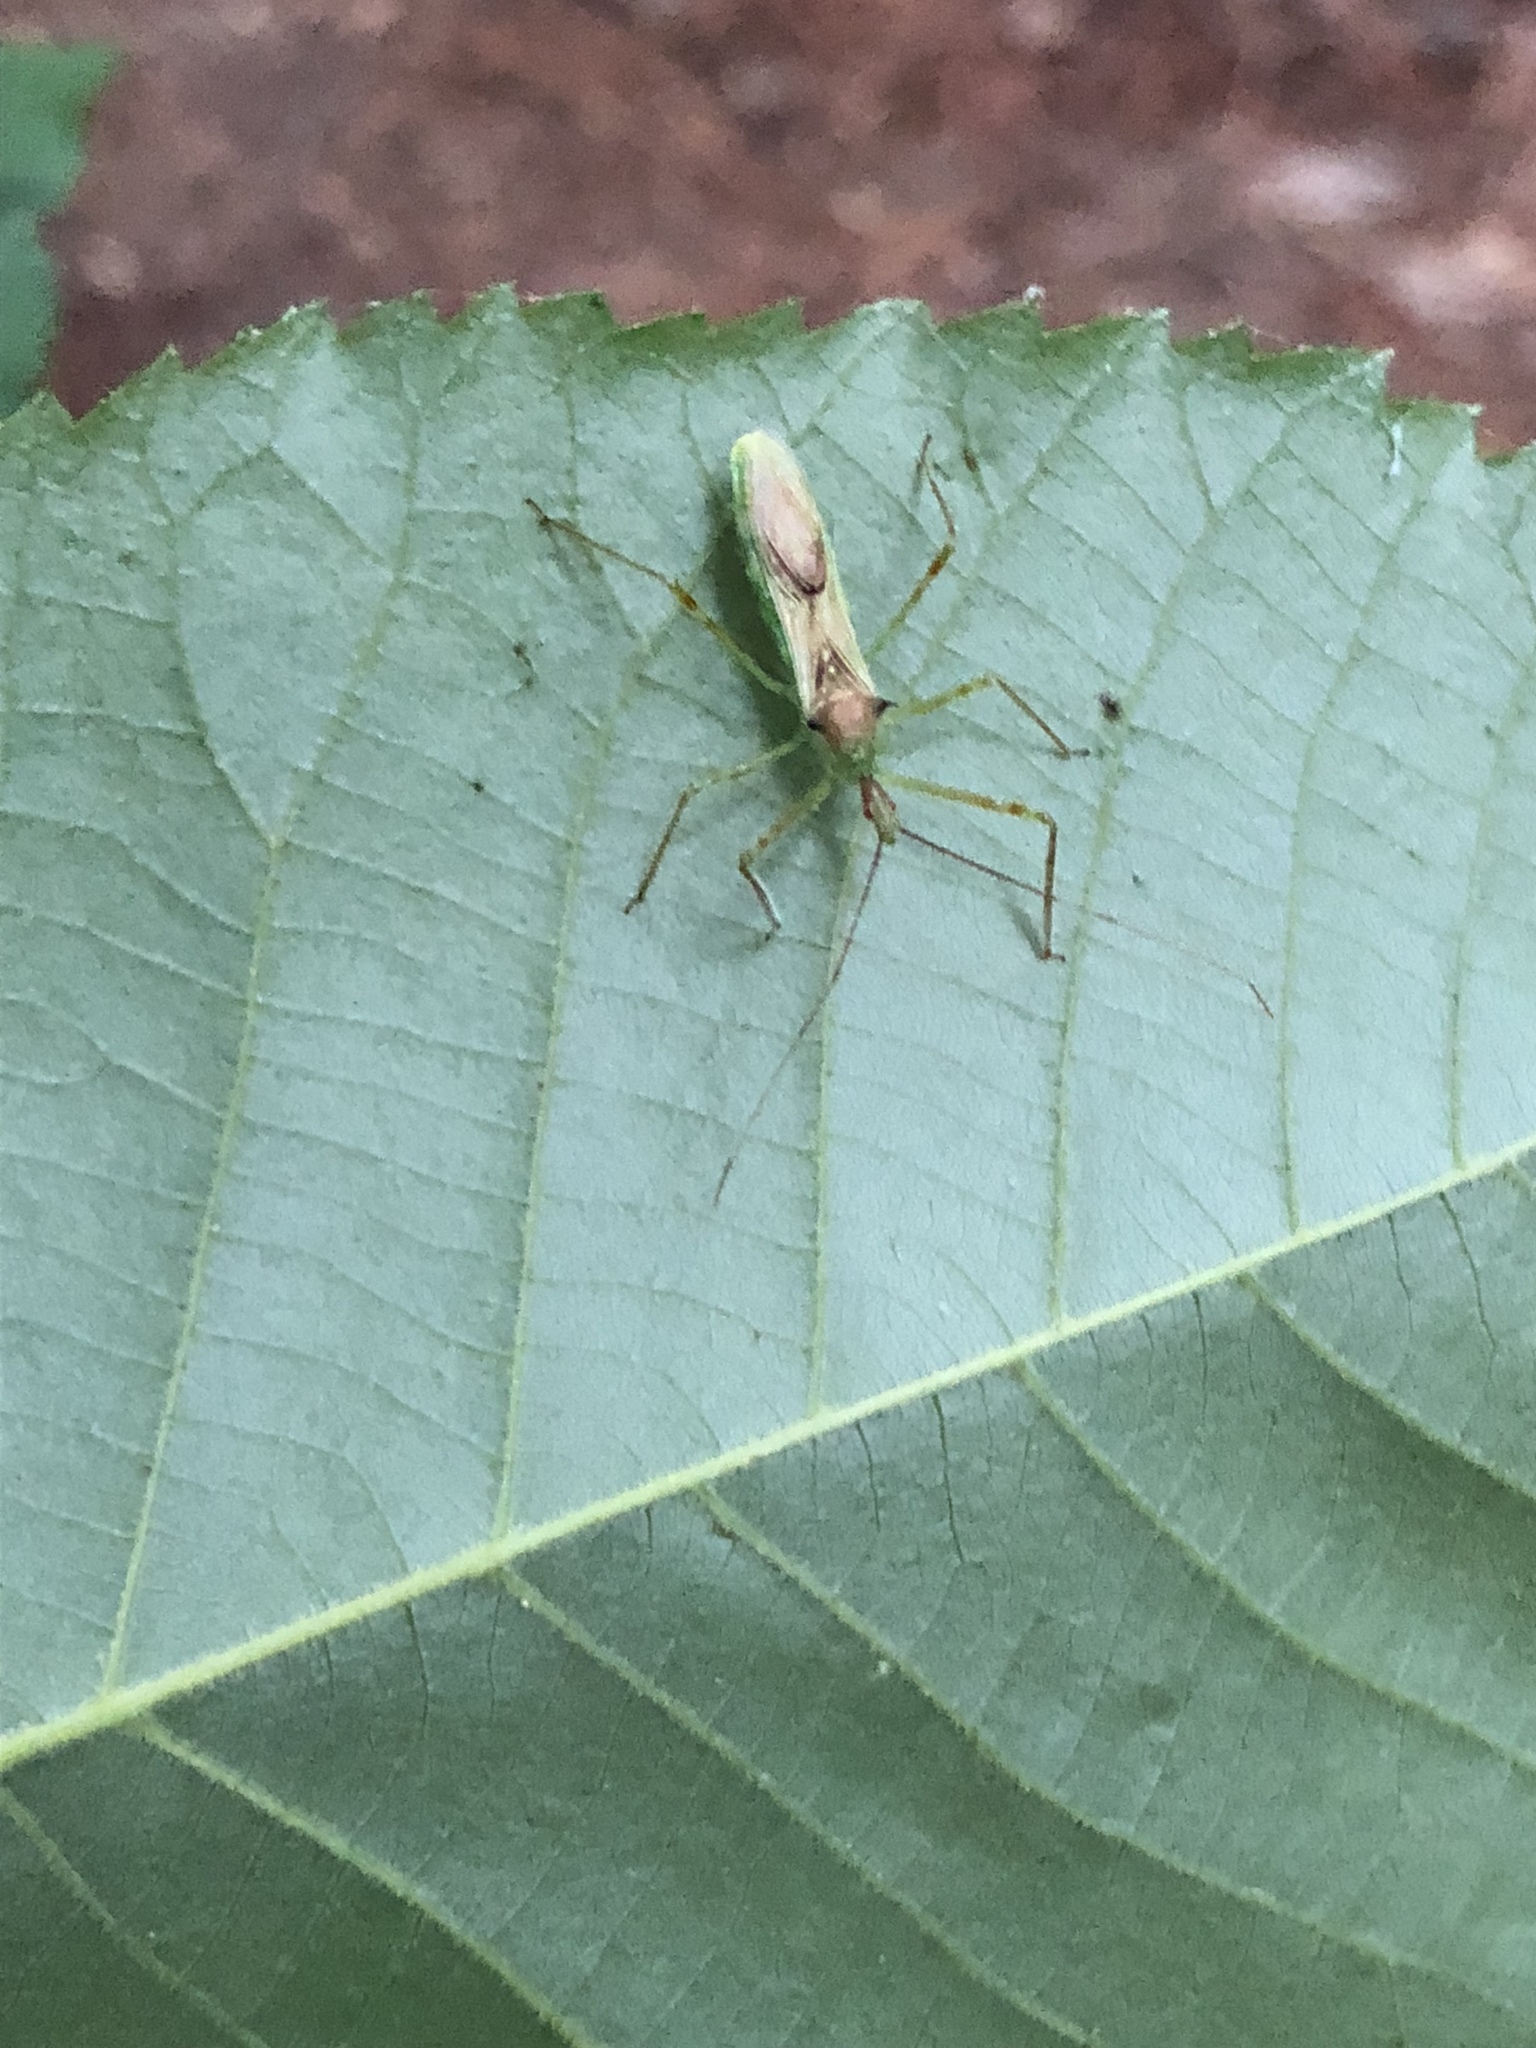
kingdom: Animalia
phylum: Arthropoda
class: Insecta
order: Hemiptera
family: Reduviidae
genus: Zelus
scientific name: Zelus luridus
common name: Pale green assassin bug
